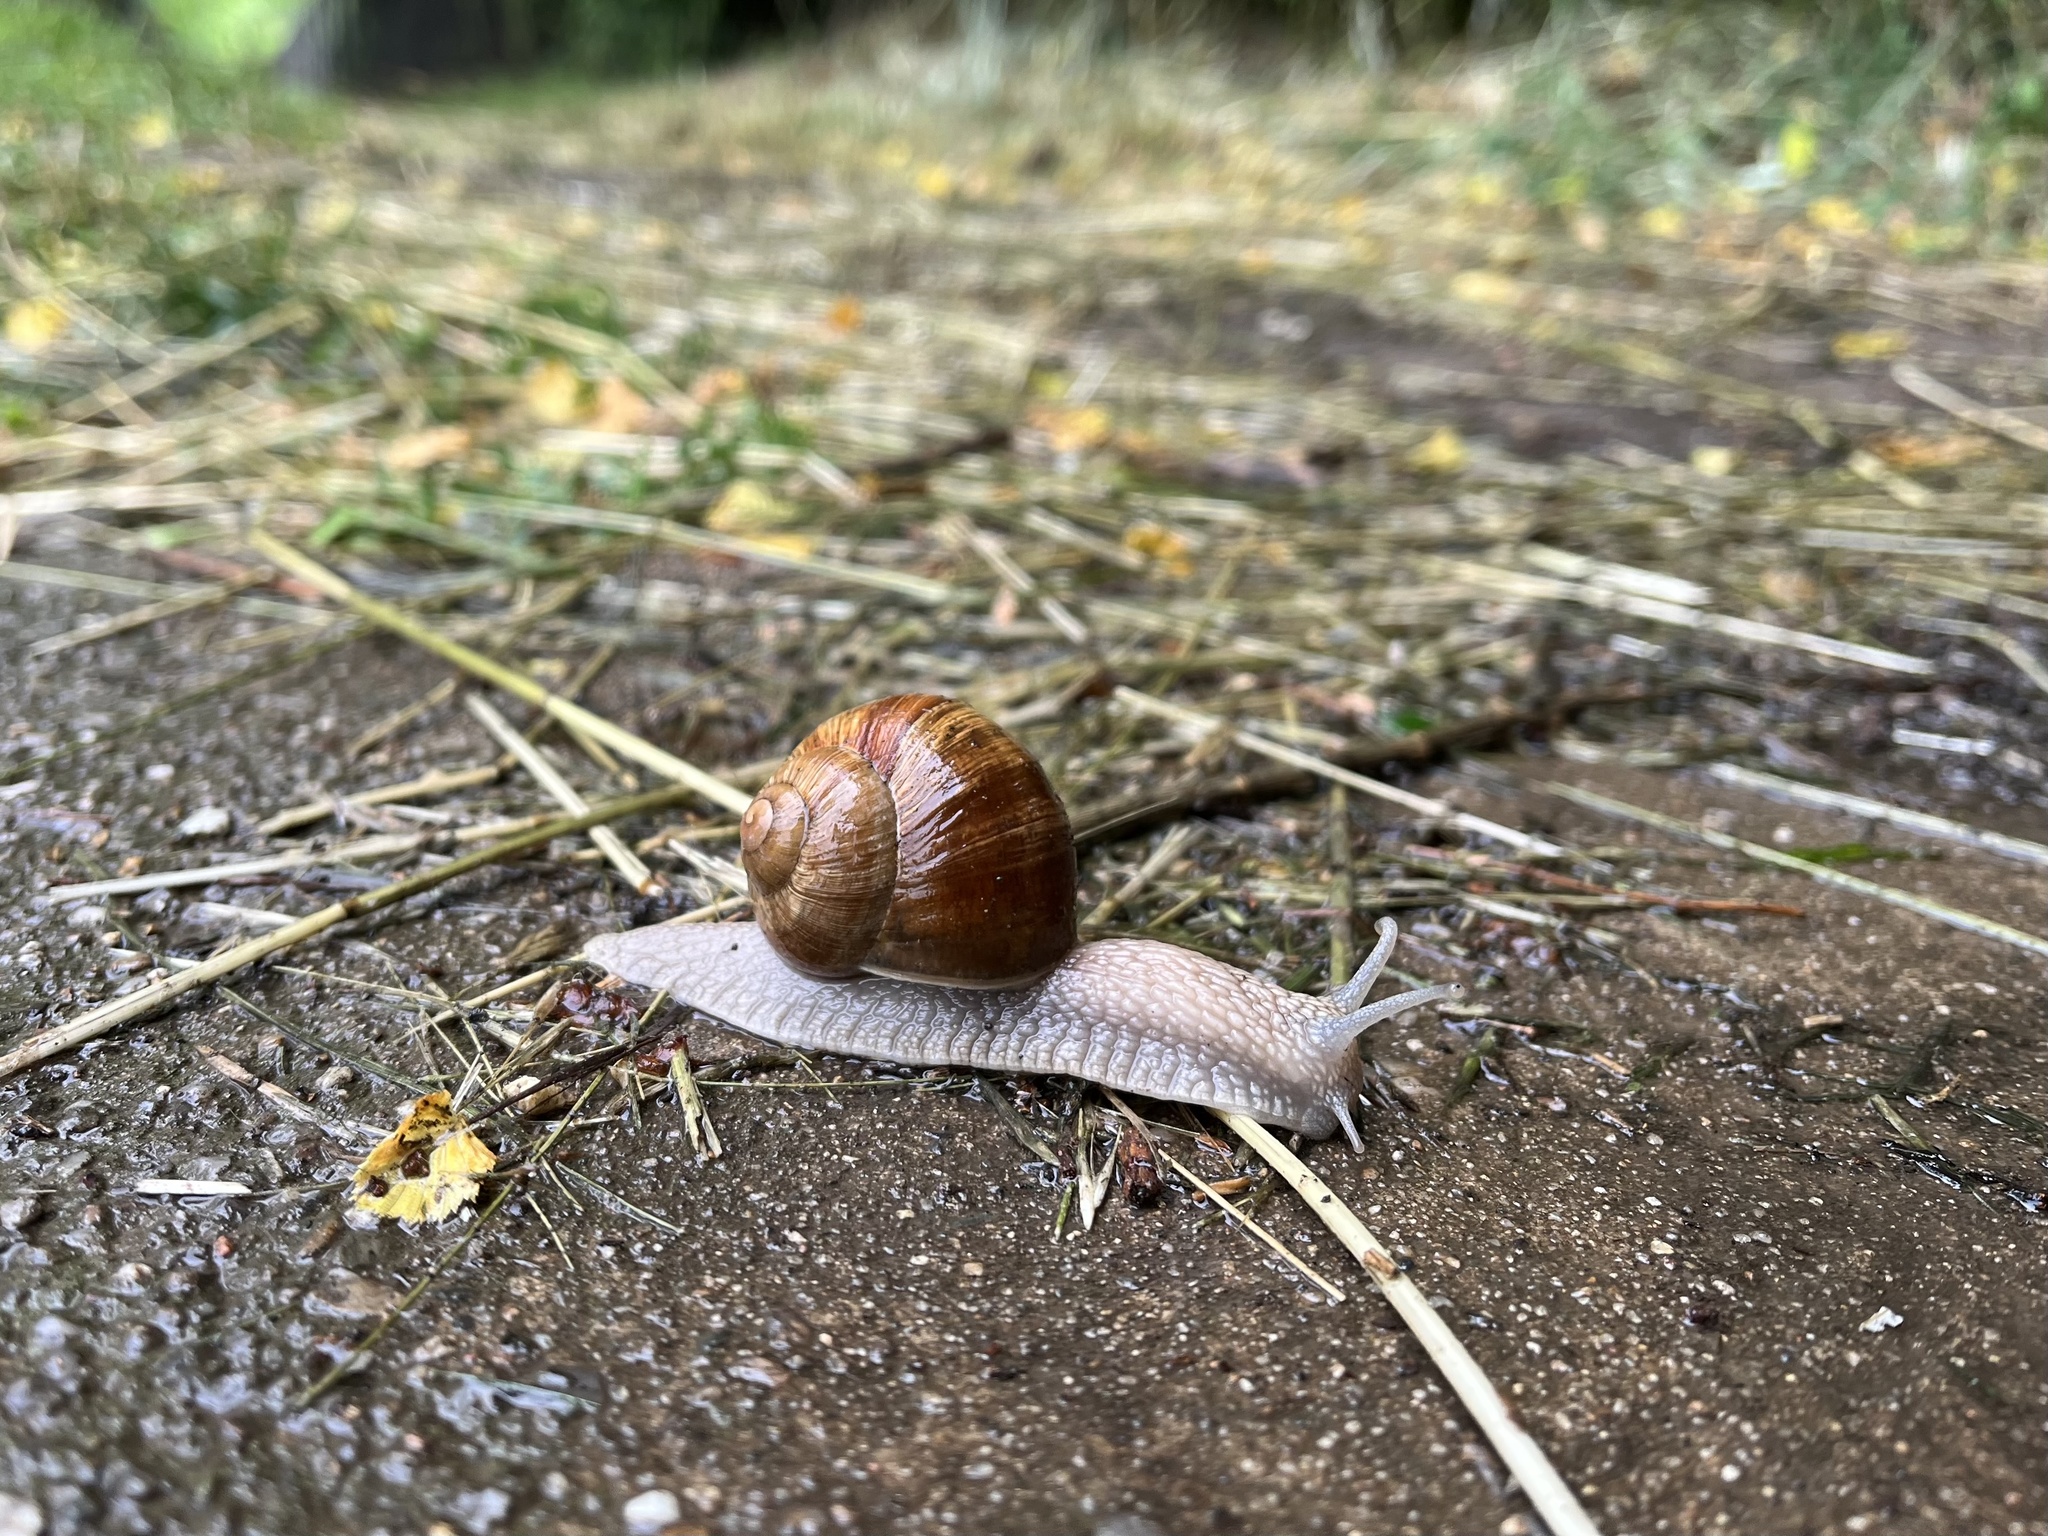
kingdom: Animalia
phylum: Mollusca
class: Gastropoda
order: Stylommatophora
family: Helicidae
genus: Helix
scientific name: Helix pomatia
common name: Roman snail
